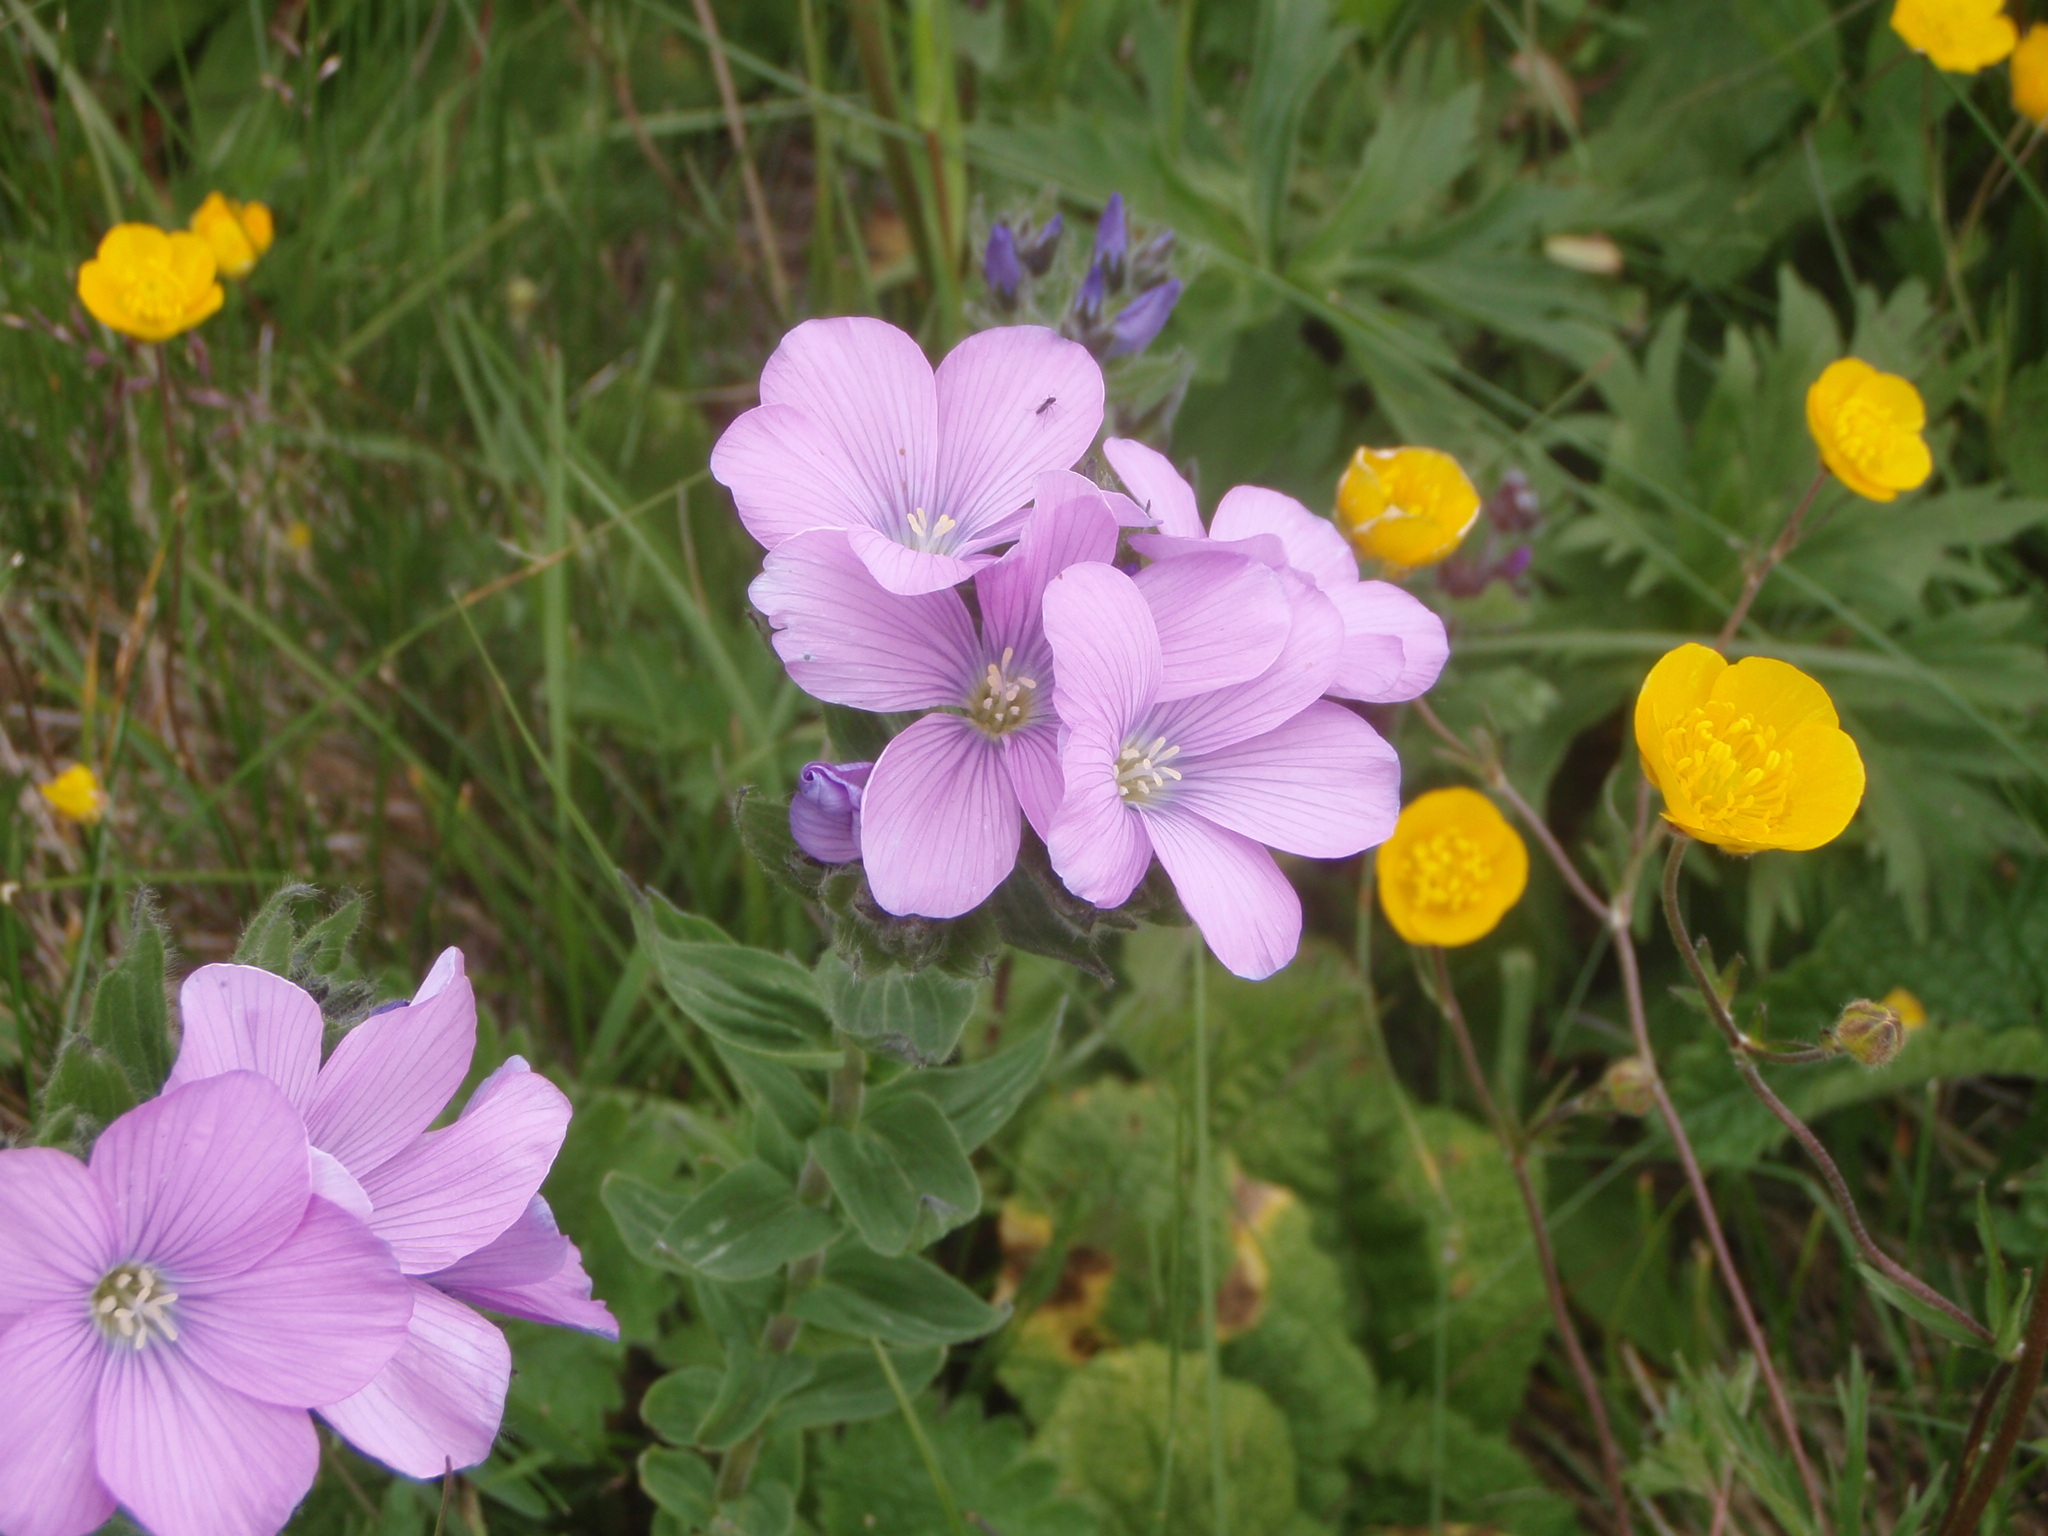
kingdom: Plantae
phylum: Tracheophyta
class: Magnoliopsida
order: Malpighiales
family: Linaceae
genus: Linum
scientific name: Linum hypericifolium
